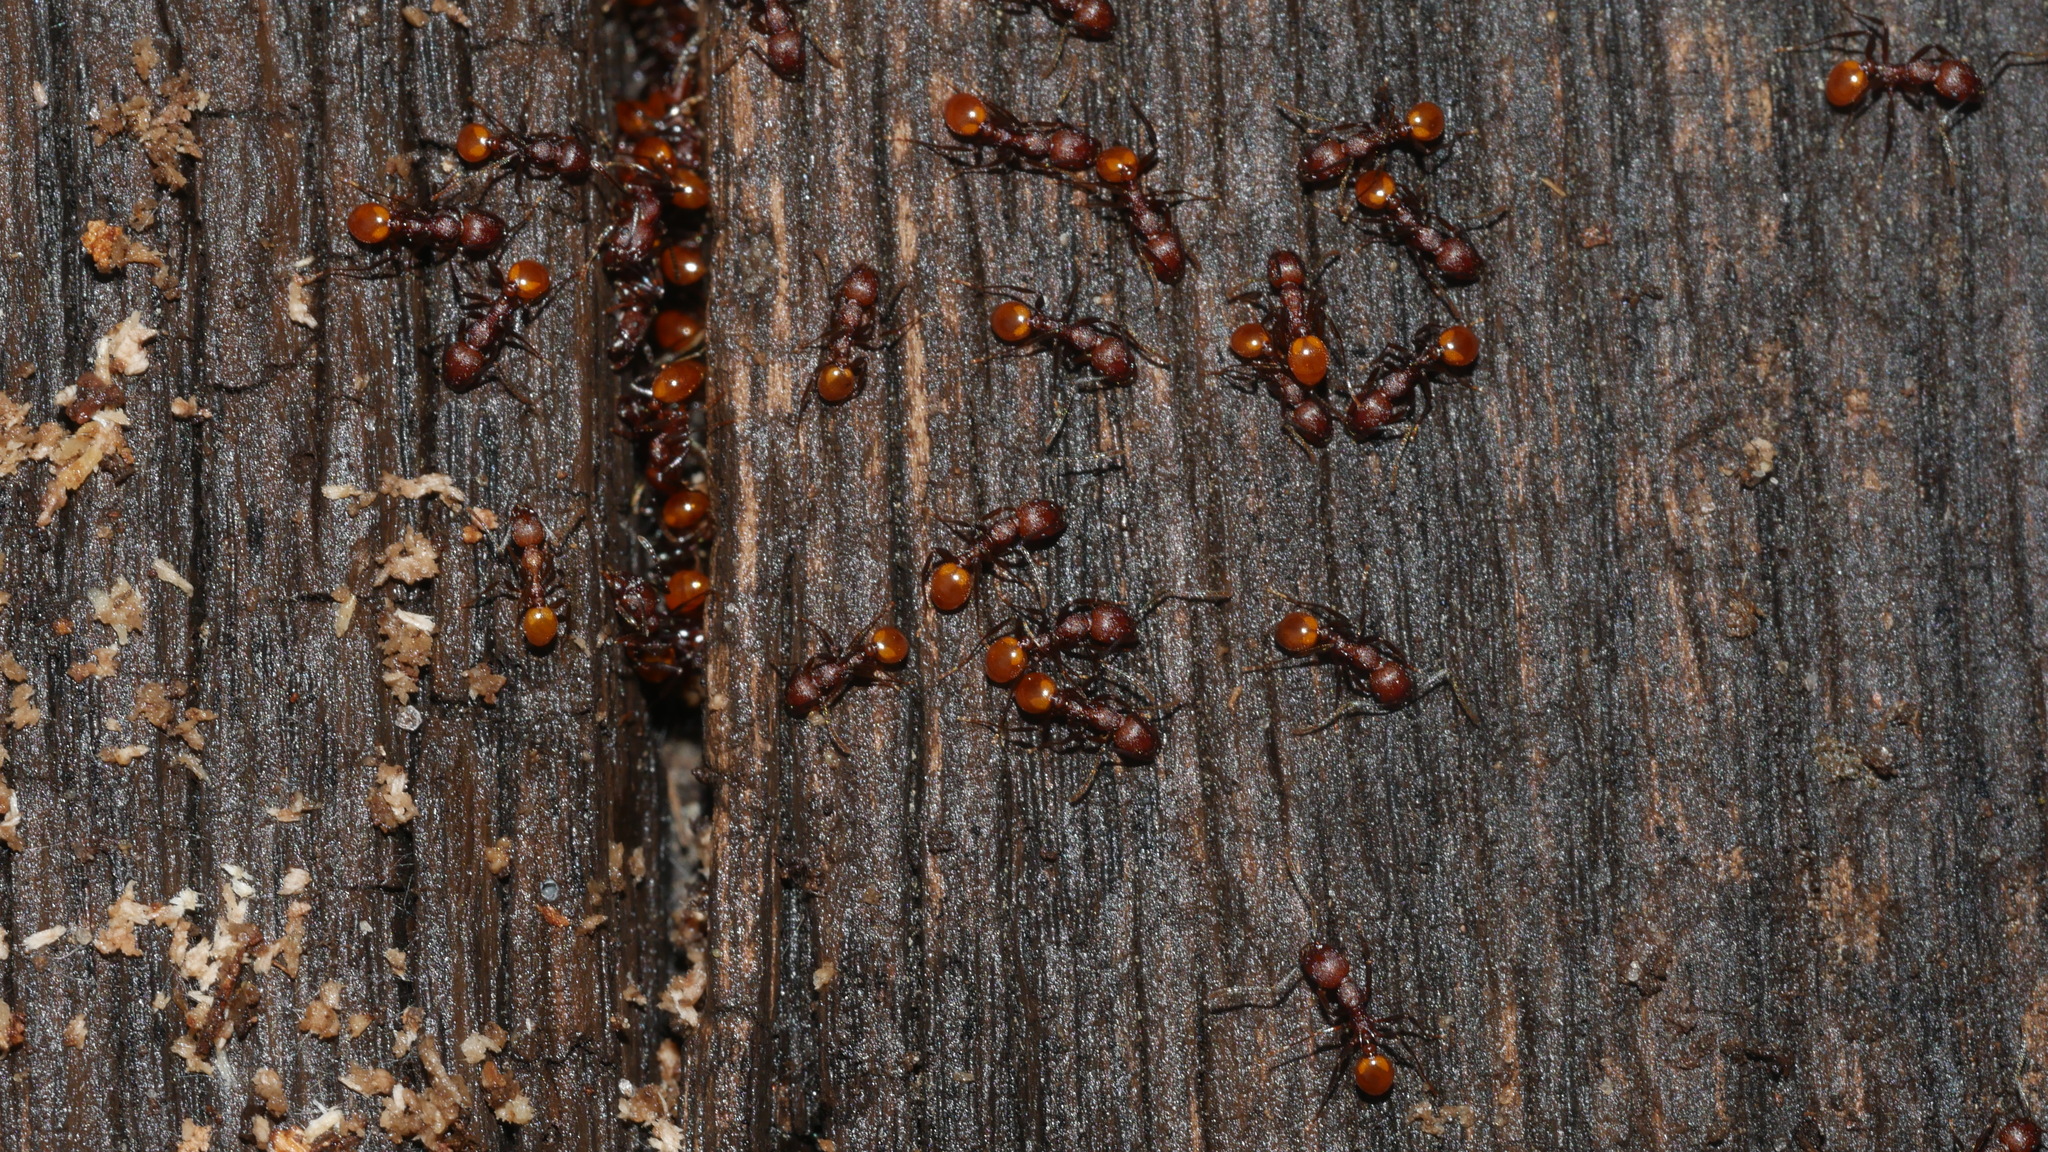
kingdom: Animalia
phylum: Arthropoda
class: Insecta
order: Hymenoptera
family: Formicidae
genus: Aphaenogaster
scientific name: Aphaenogaster tennesseensis
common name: Tennessee thread-waisted ant
